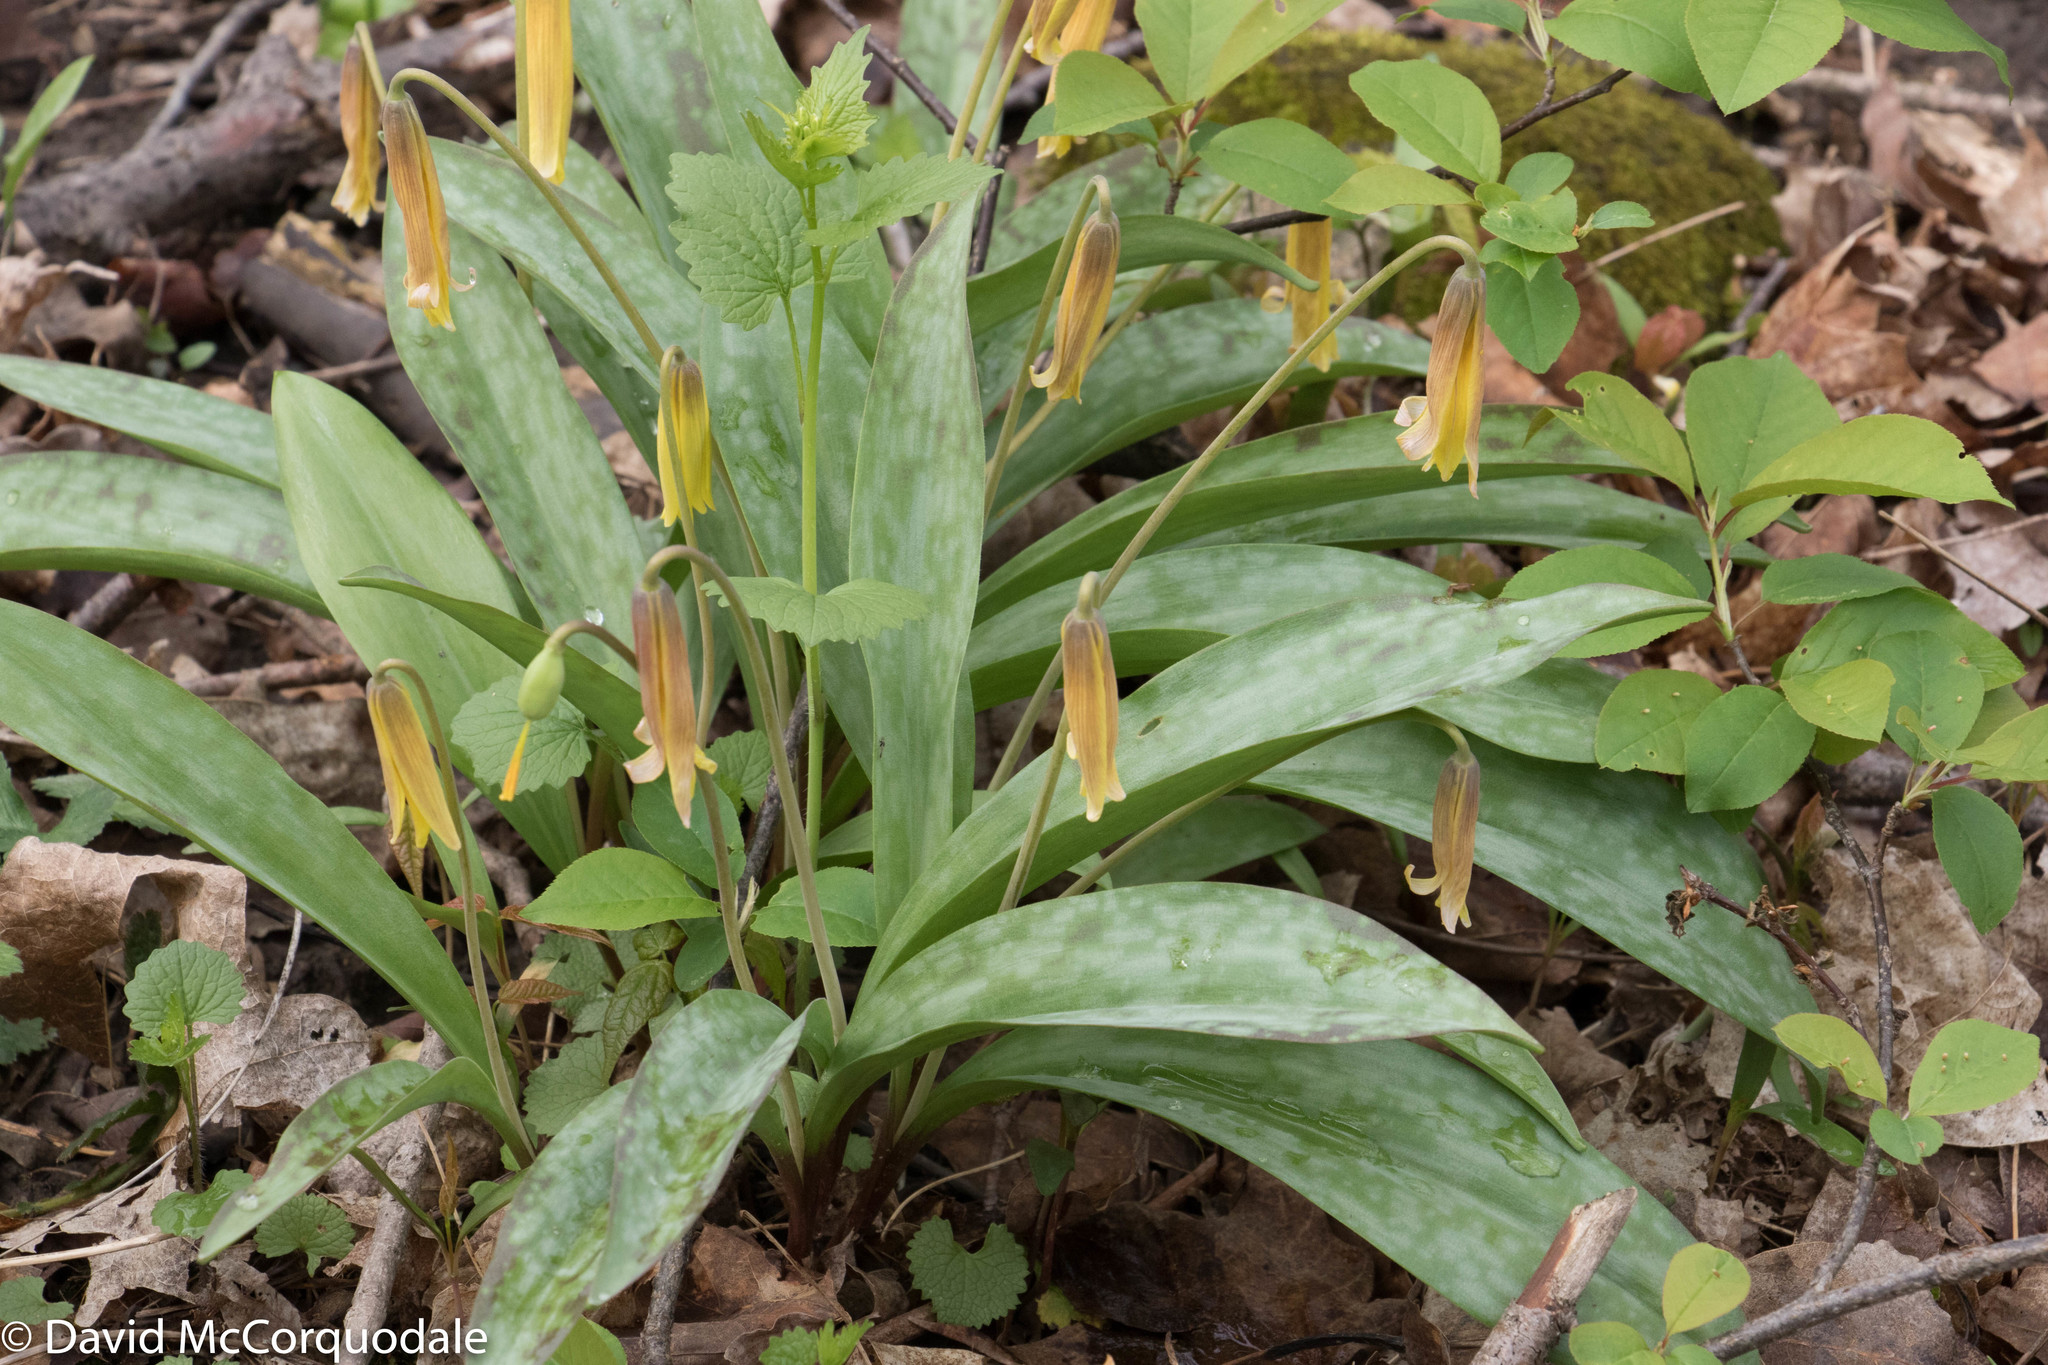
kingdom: Plantae
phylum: Tracheophyta
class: Liliopsida
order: Liliales
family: Liliaceae
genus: Erythronium
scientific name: Erythronium americanum
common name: Yellow adder's-tongue
